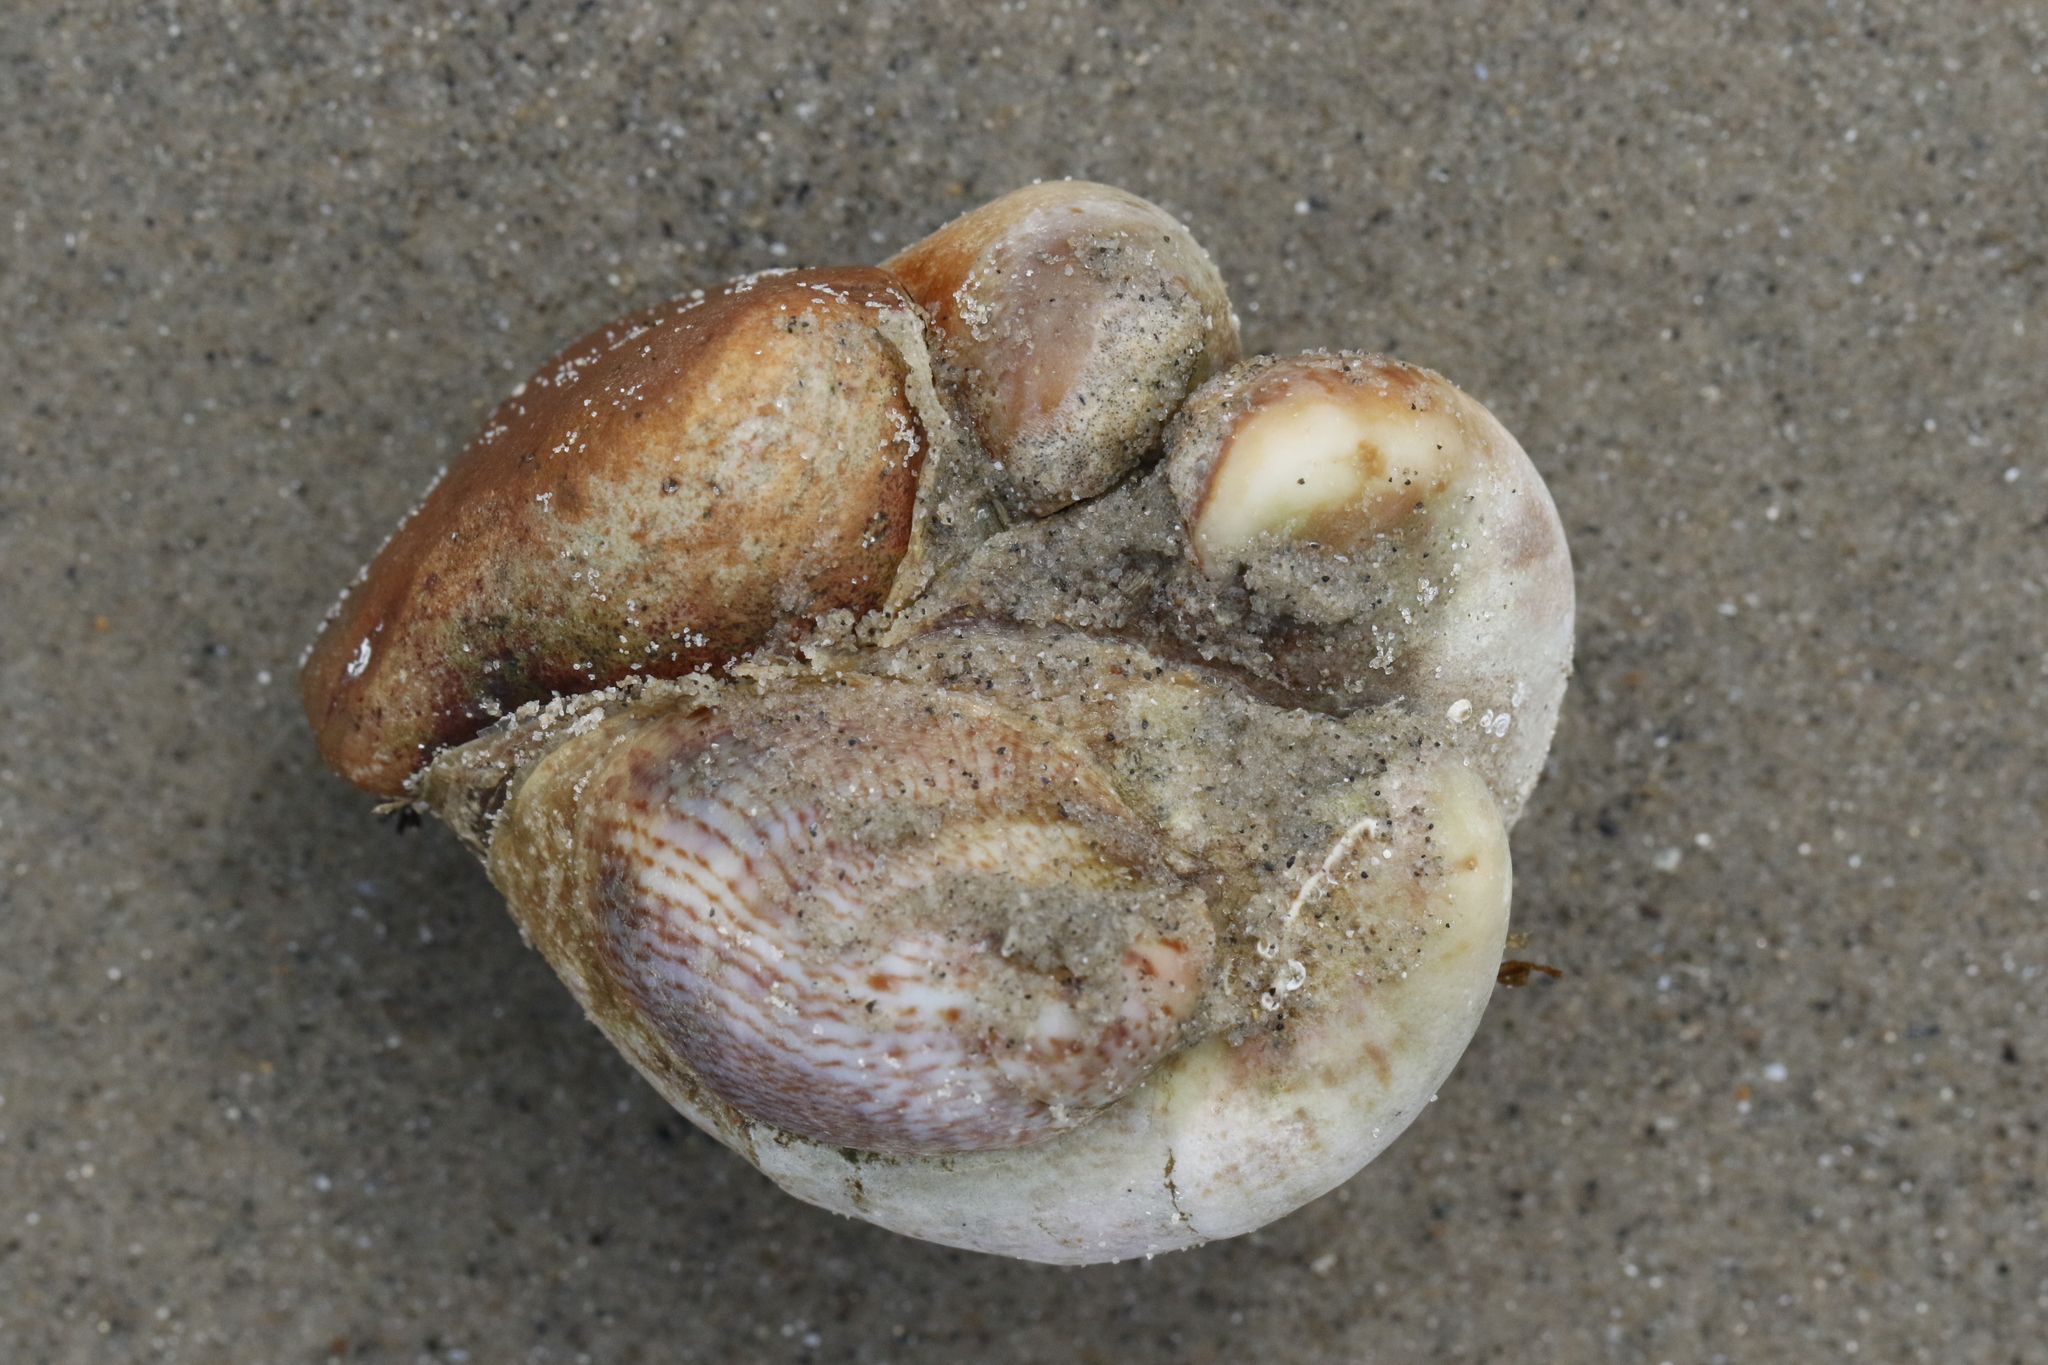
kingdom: Animalia
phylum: Mollusca
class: Gastropoda
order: Littorinimorpha
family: Calyptraeidae
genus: Crepidula
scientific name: Crepidula fornicata
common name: Slipper limpet
